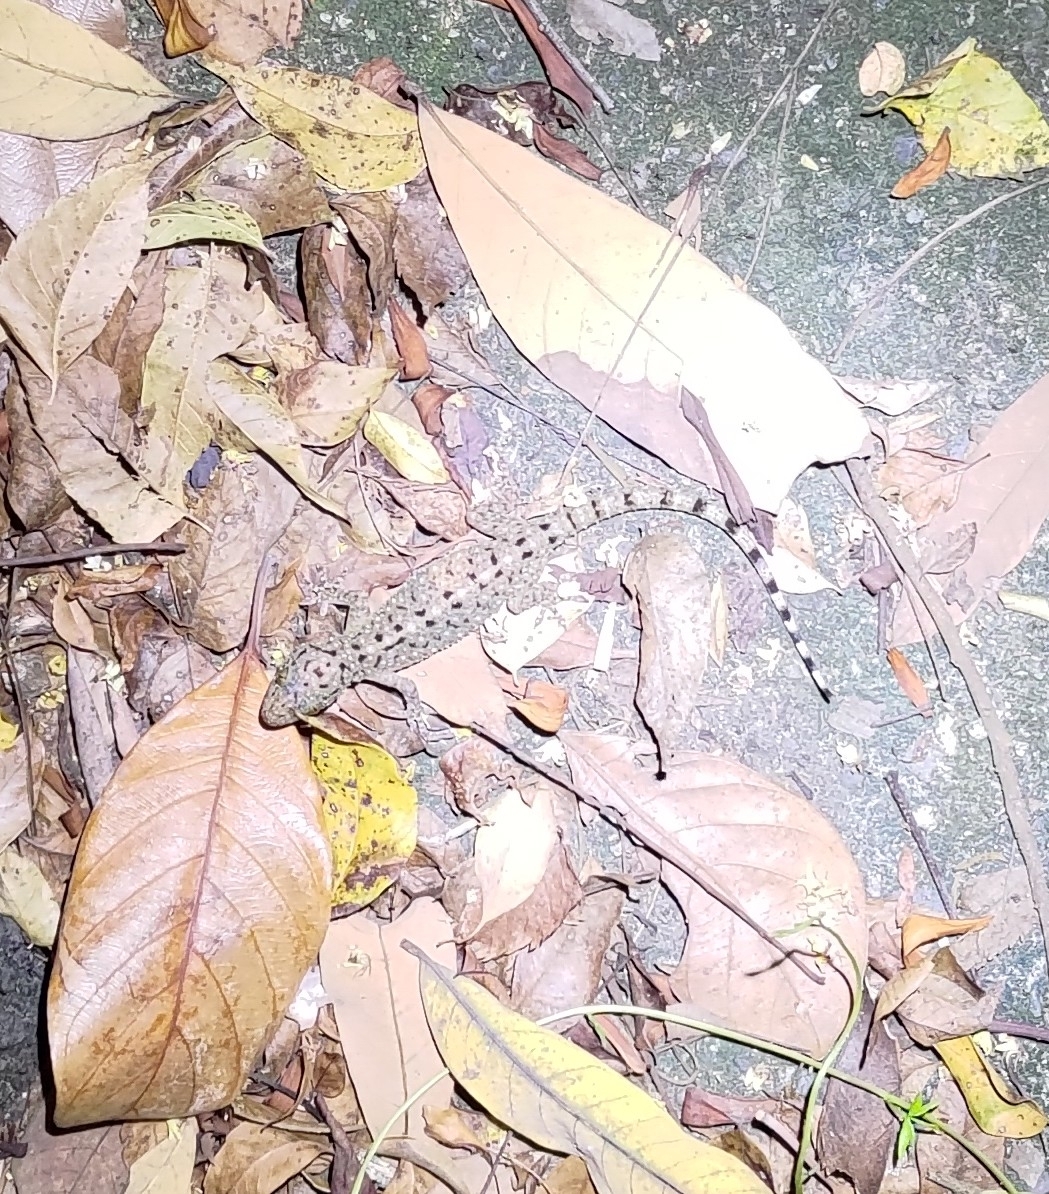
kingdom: Animalia
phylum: Chordata
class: Squamata
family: Gekkonidae
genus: Gekko
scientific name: Gekko monarchus
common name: Spotted house gecko
